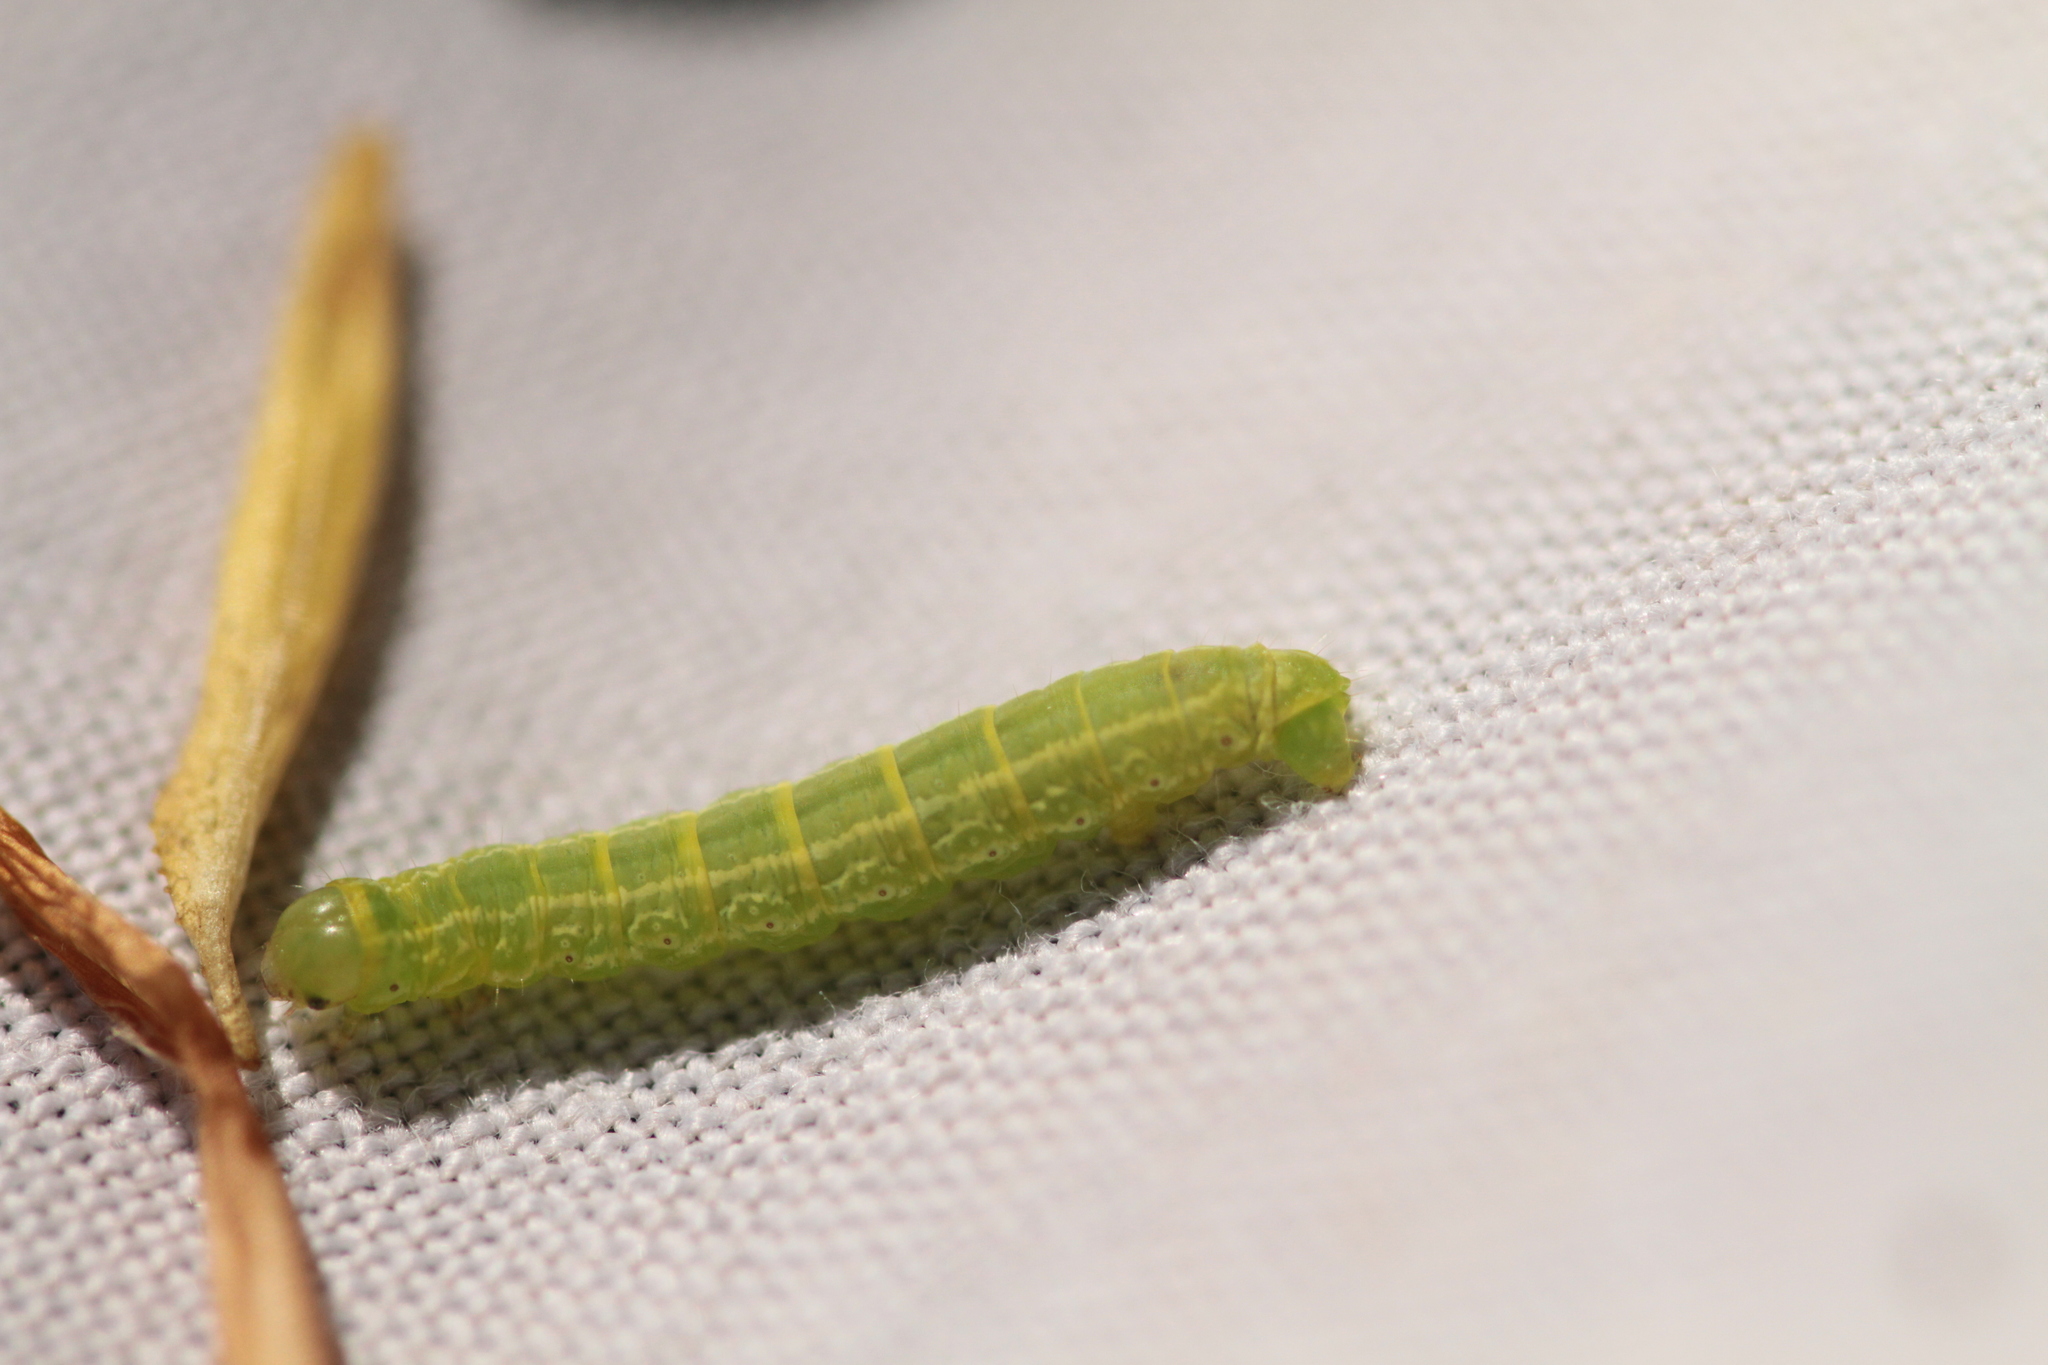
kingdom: Animalia
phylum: Arthropoda
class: Insecta
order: Lepidoptera
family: Geometridae
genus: Operophtera
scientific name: Operophtera brumata
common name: Winter moth
